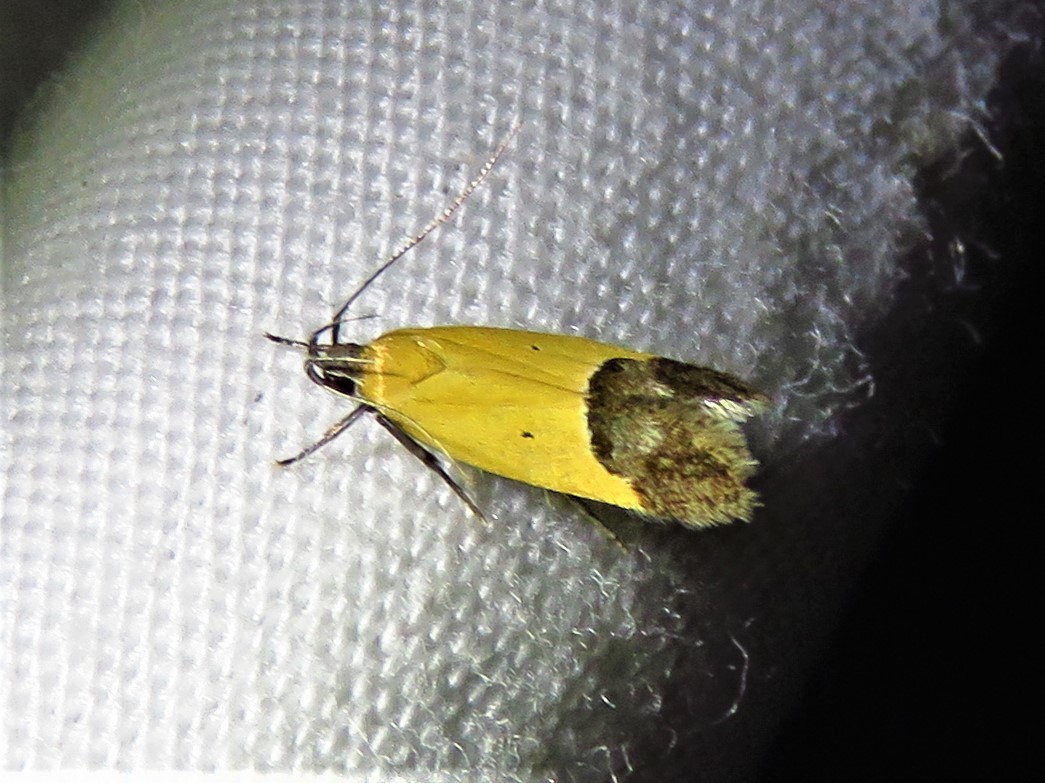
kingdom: Animalia
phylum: Arthropoda
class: Insecta
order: Lepidoptera
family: Momphidae
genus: Triclonella
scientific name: Triclonella pergandeella
